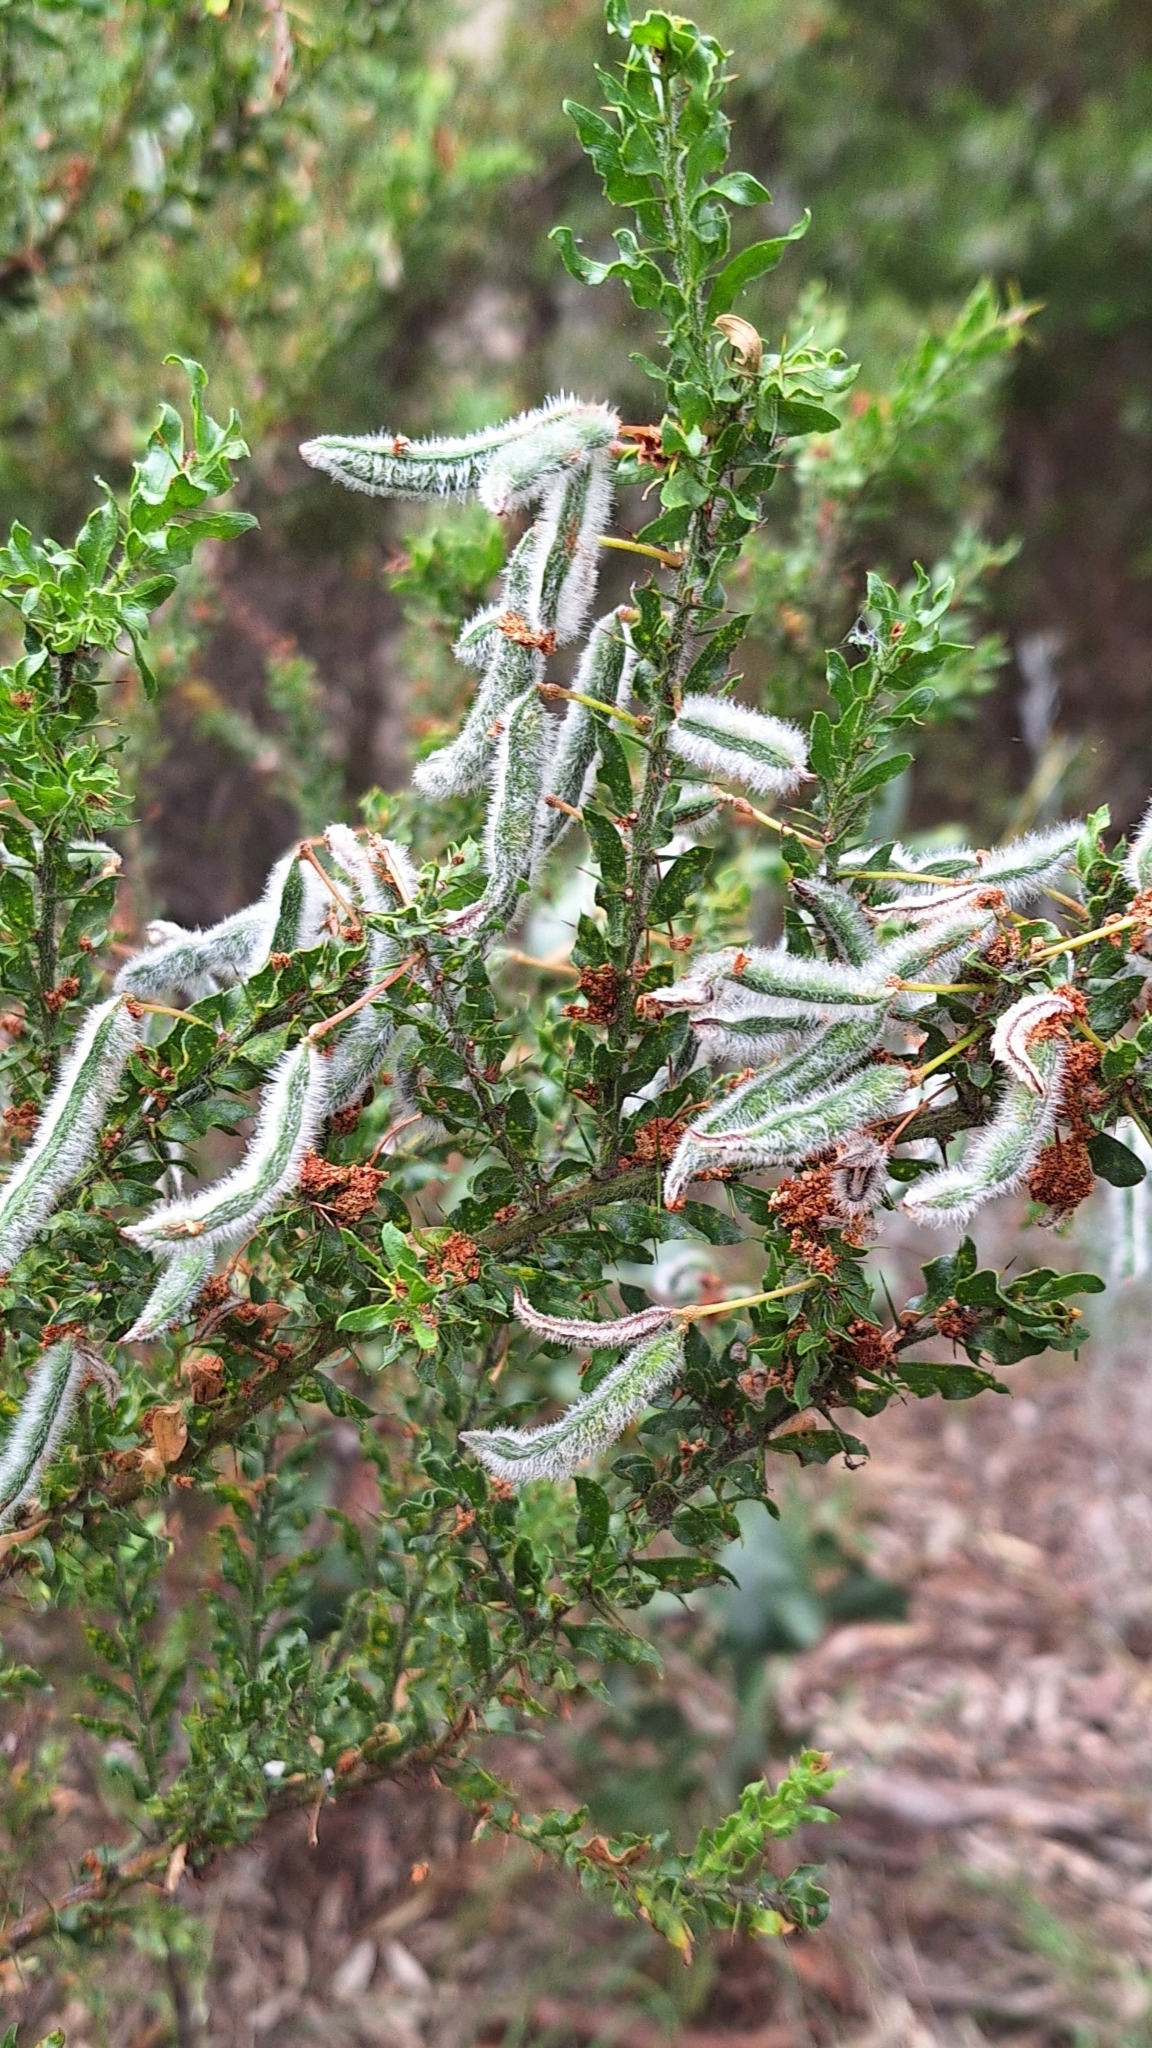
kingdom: Plantae
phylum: Tracheophyta
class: Magnoliopsida
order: Fabales
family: Fabaceae
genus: Acacia
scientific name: Acacia paradoxa
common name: Paradox acacia
